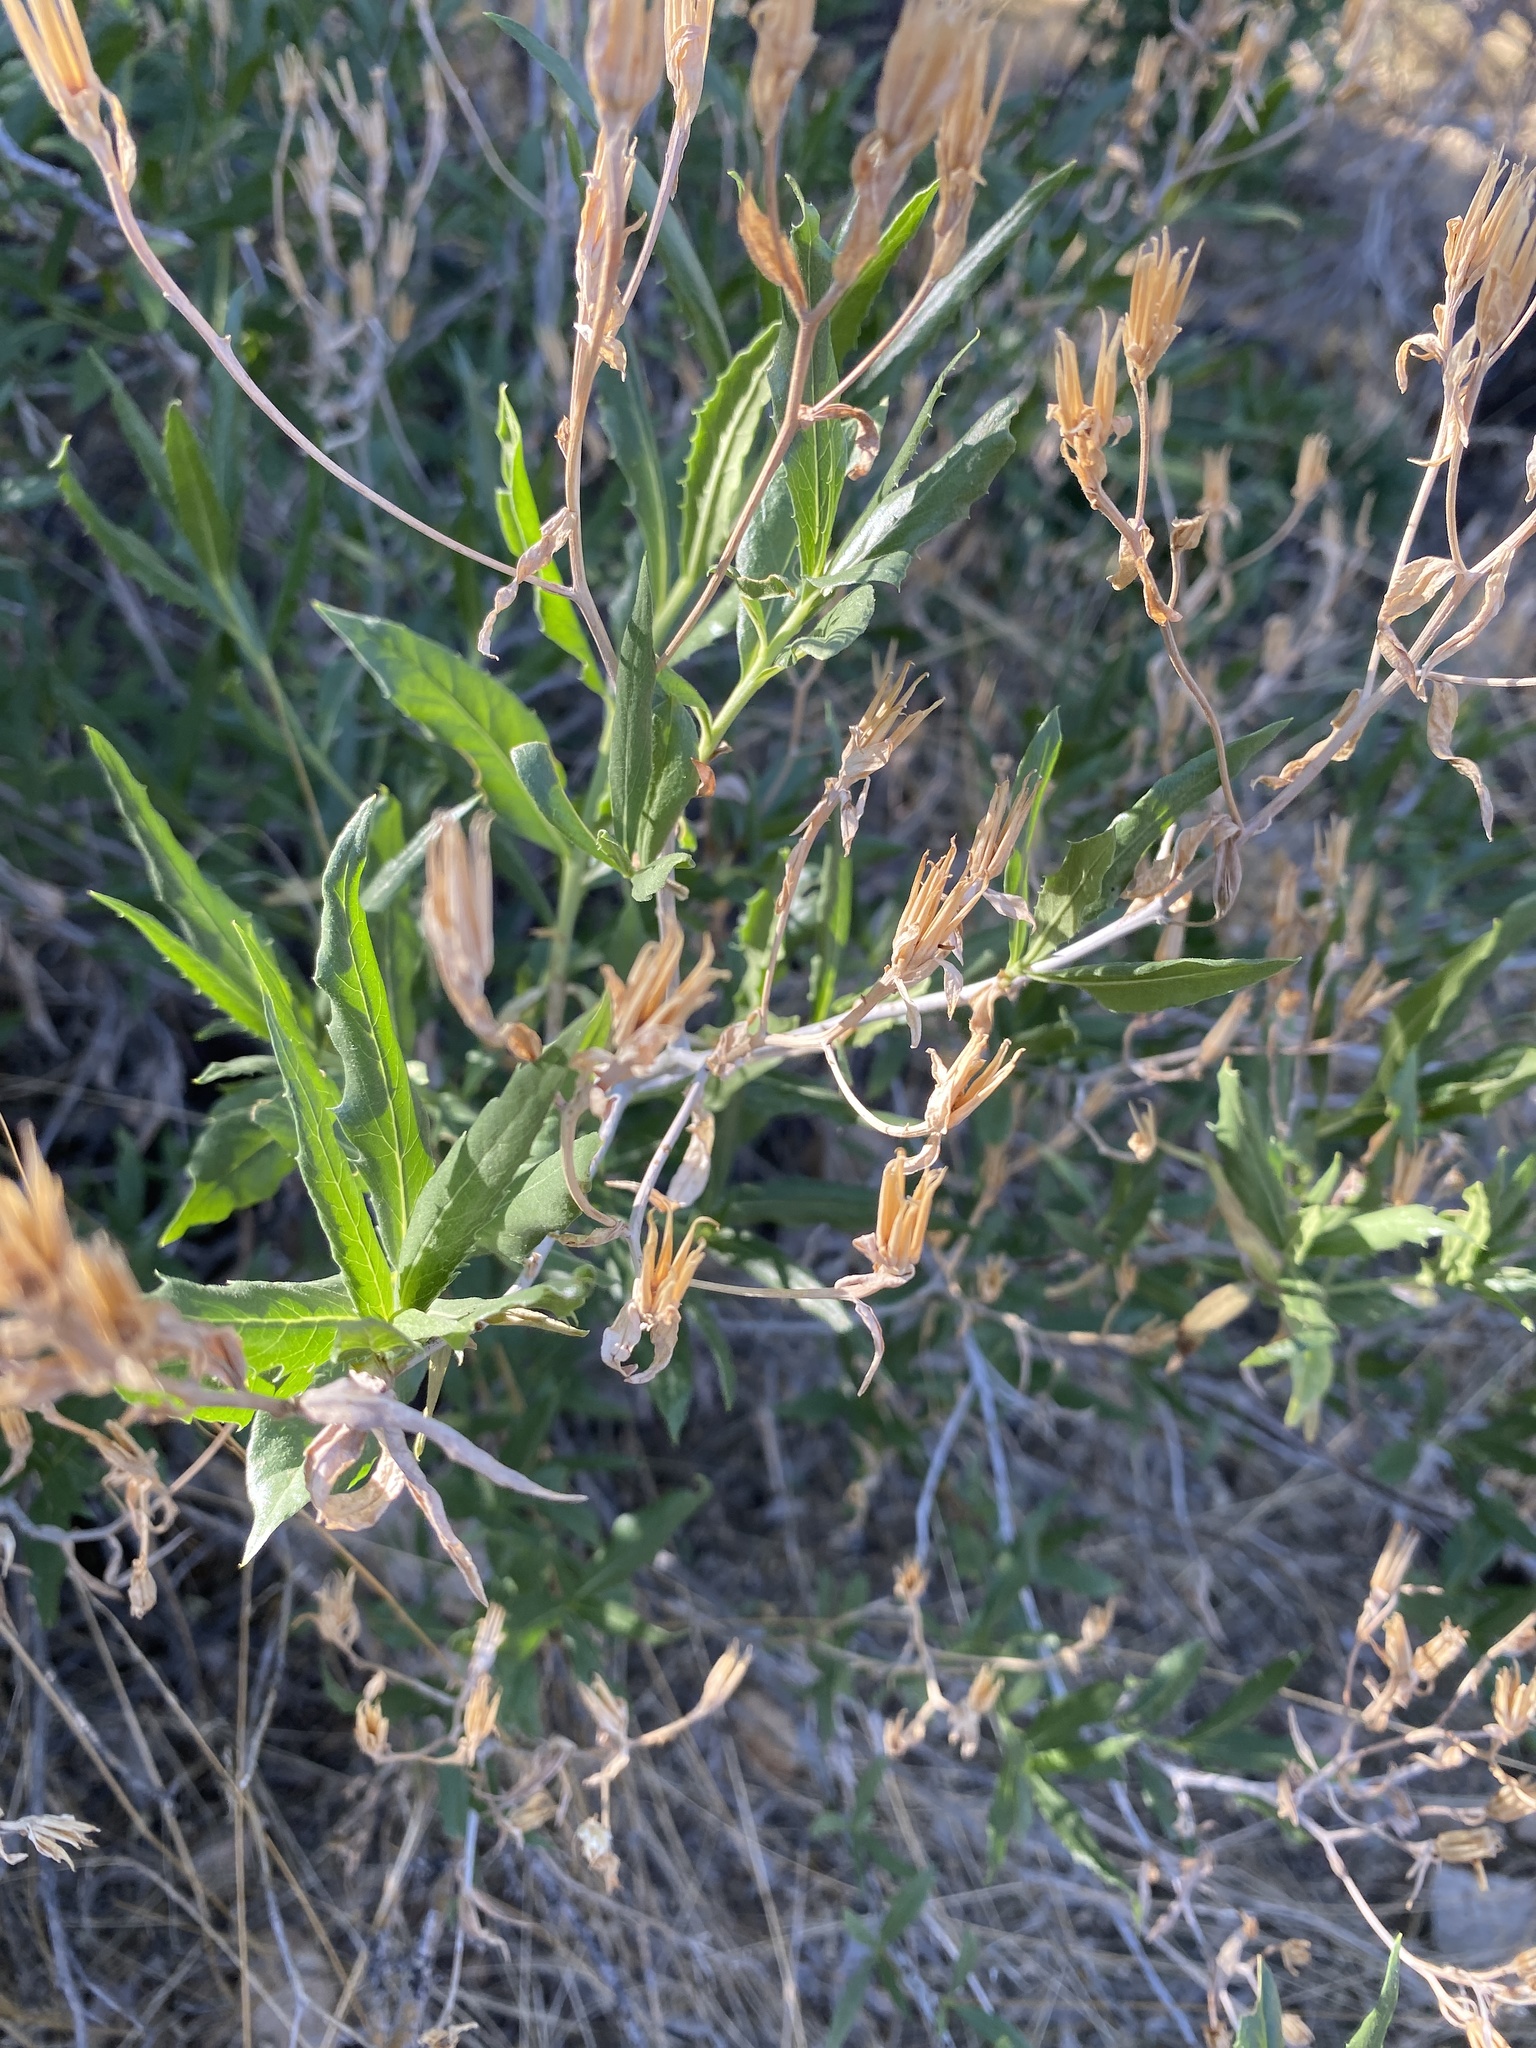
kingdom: Plantae
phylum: Tracheophyta
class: Magnoliopsida
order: Asterales
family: Asteraceae
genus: Trixis
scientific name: Trixis californica
